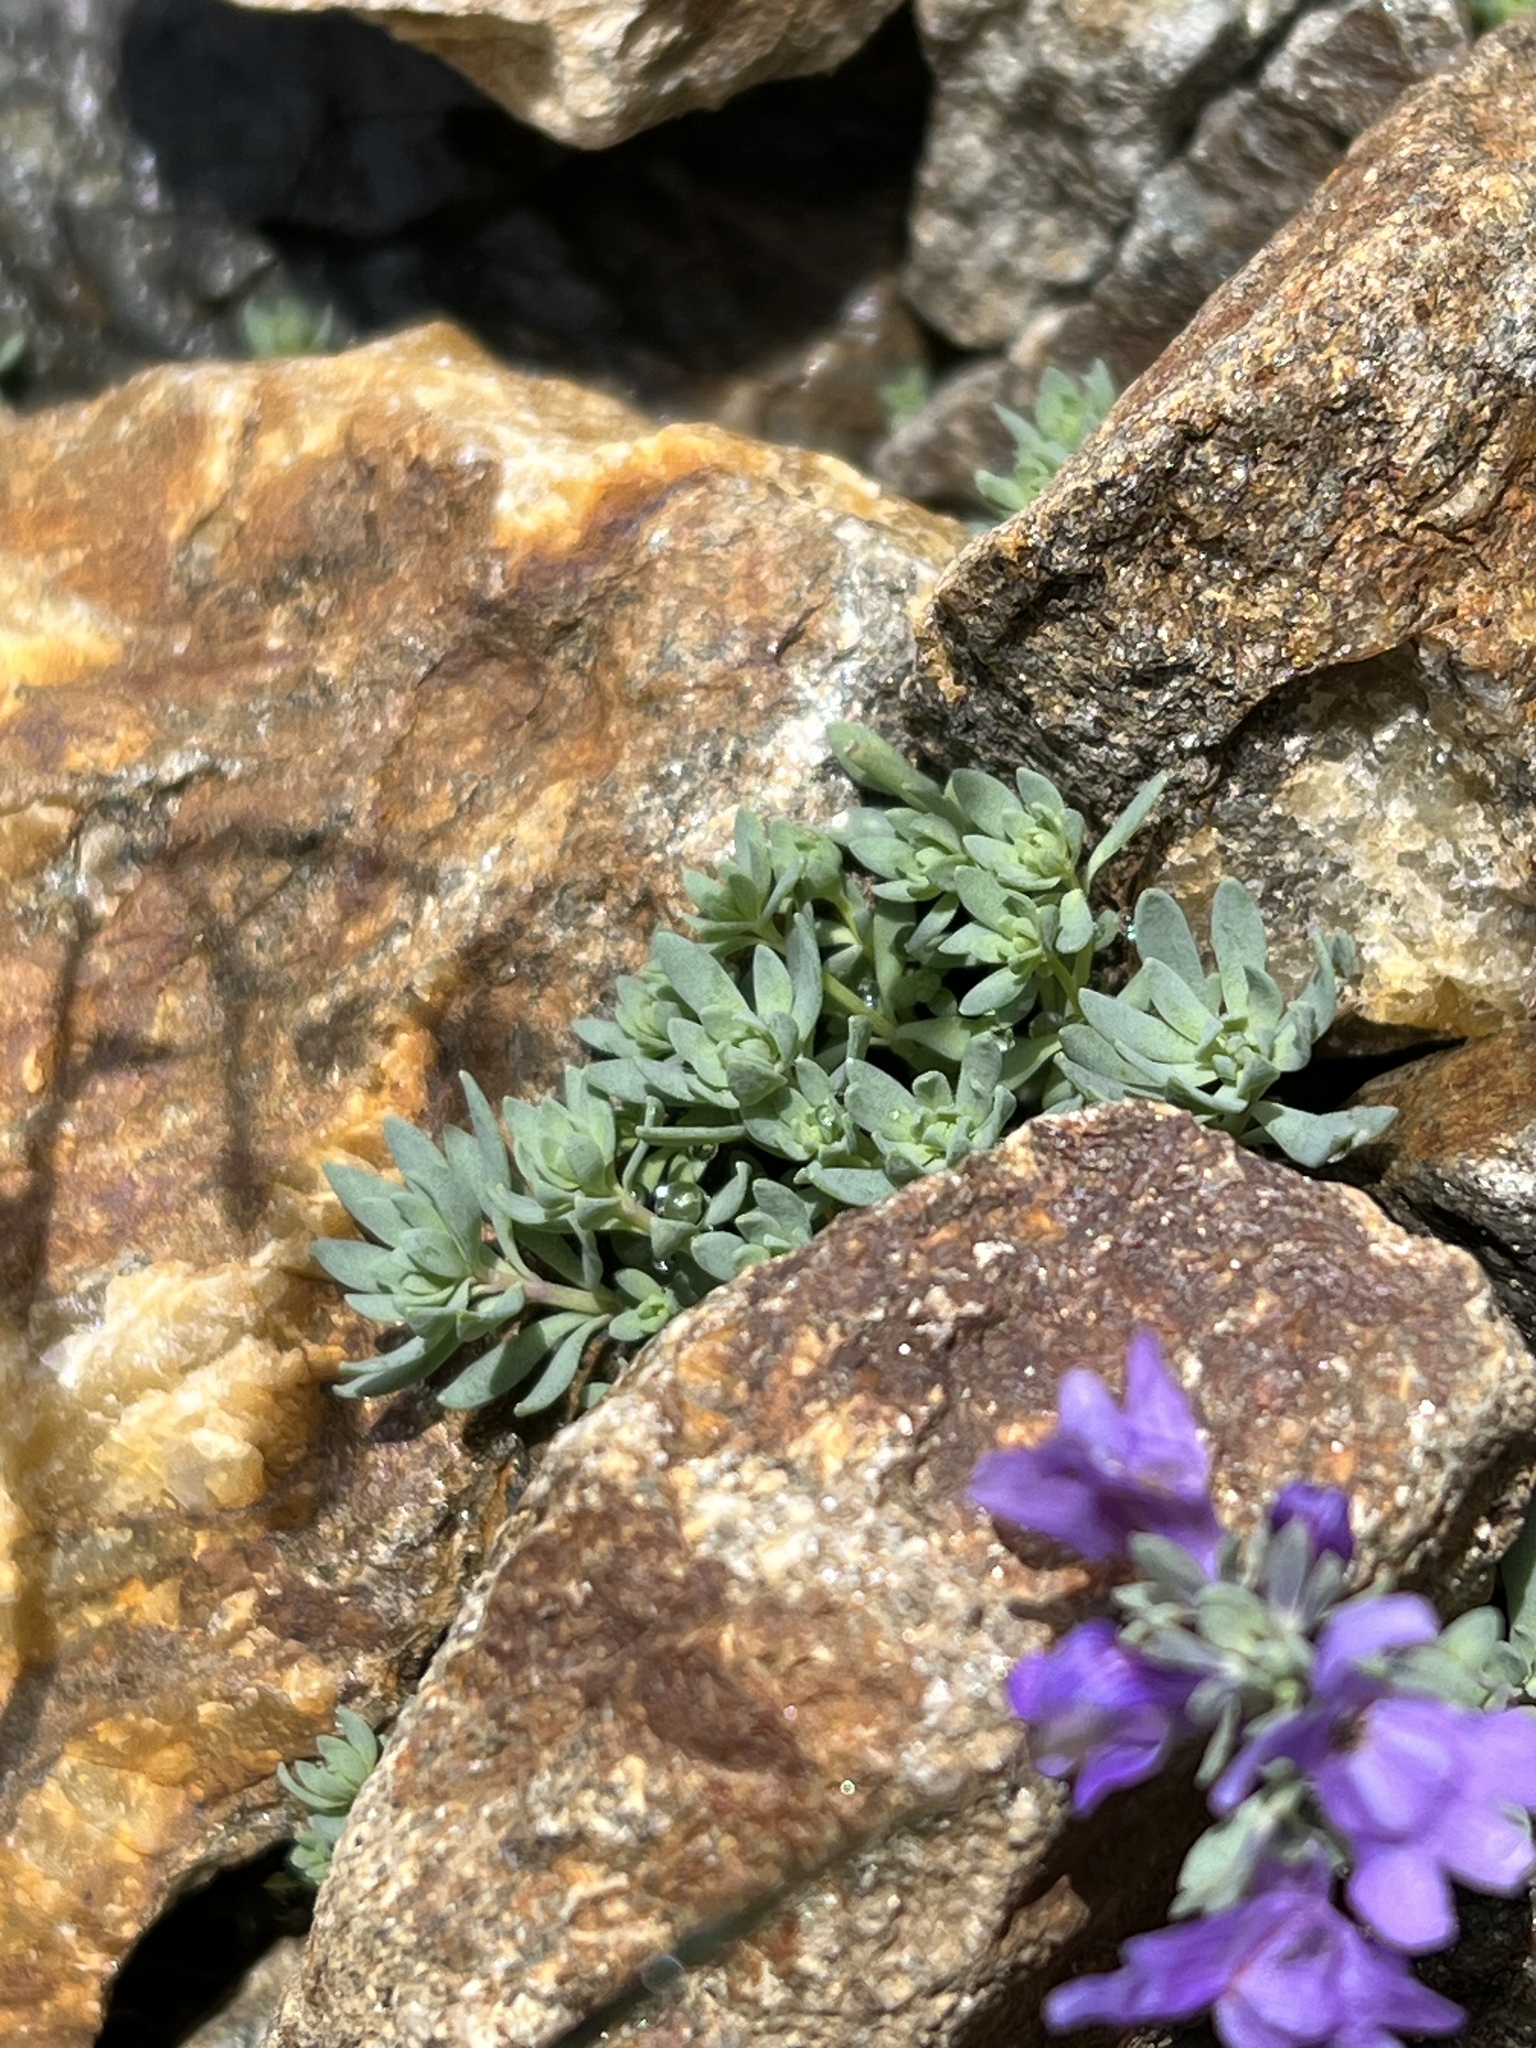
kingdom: Plantae
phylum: Tracheophyta
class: Magnoliopsida
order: Lamiales
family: Plantaginaceae
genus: Linaria
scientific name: Linaria alpina
